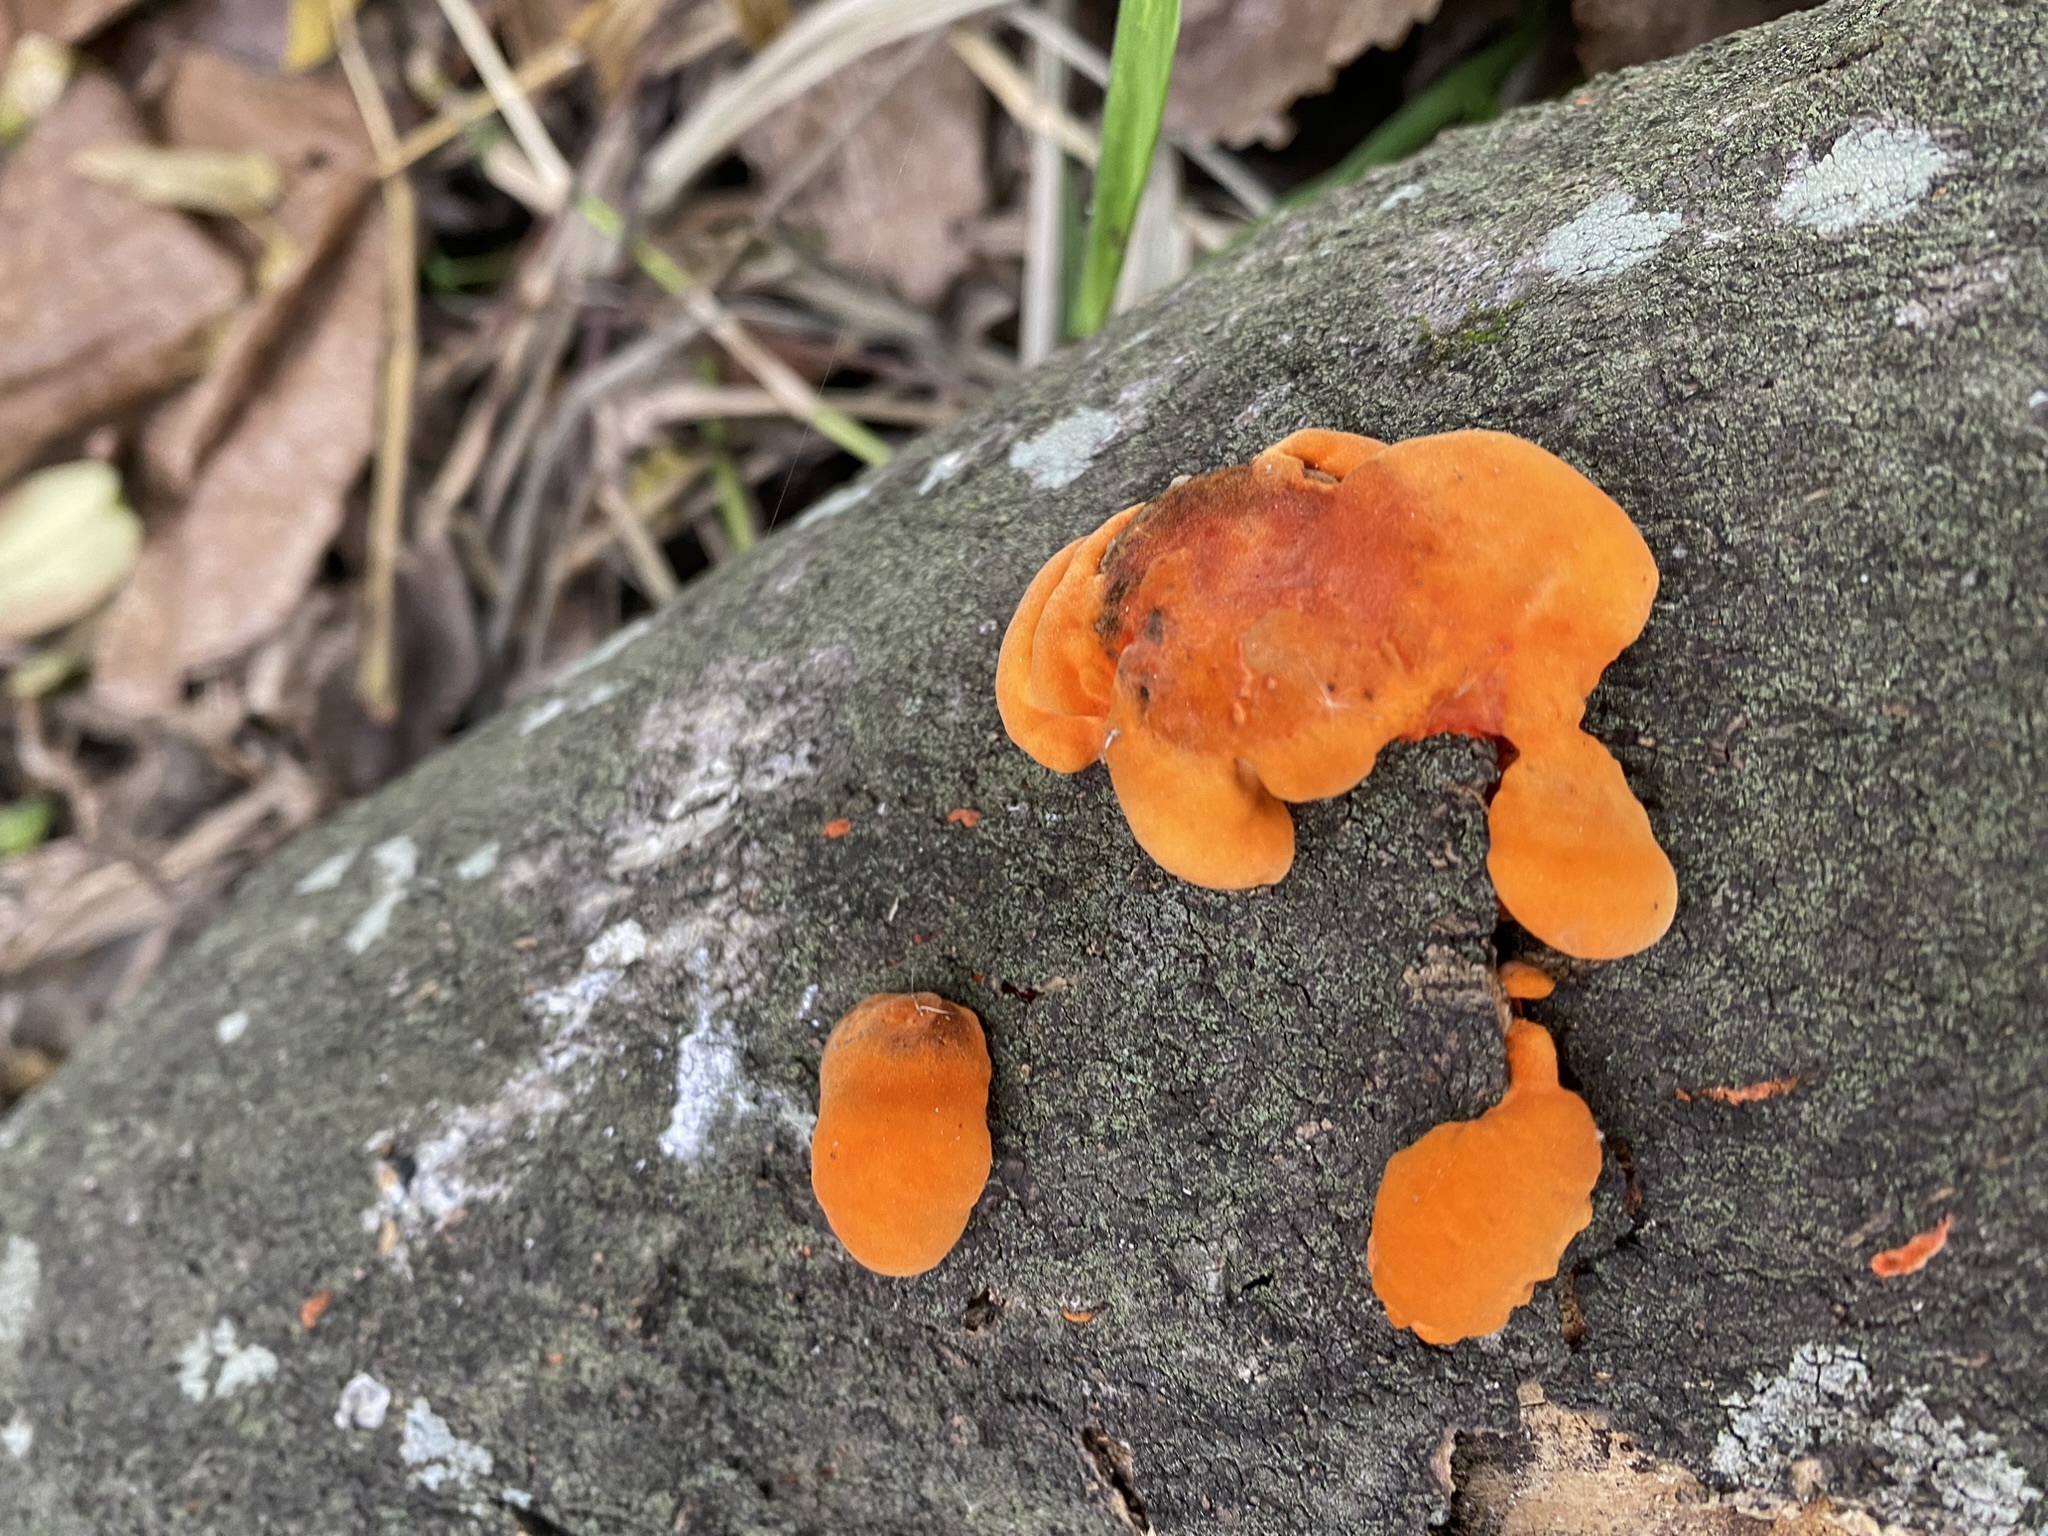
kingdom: Fungi
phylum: Basidiomycota
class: Agaricomycetes
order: Polyporales
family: Polyporaceae
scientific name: Polyporaceae
